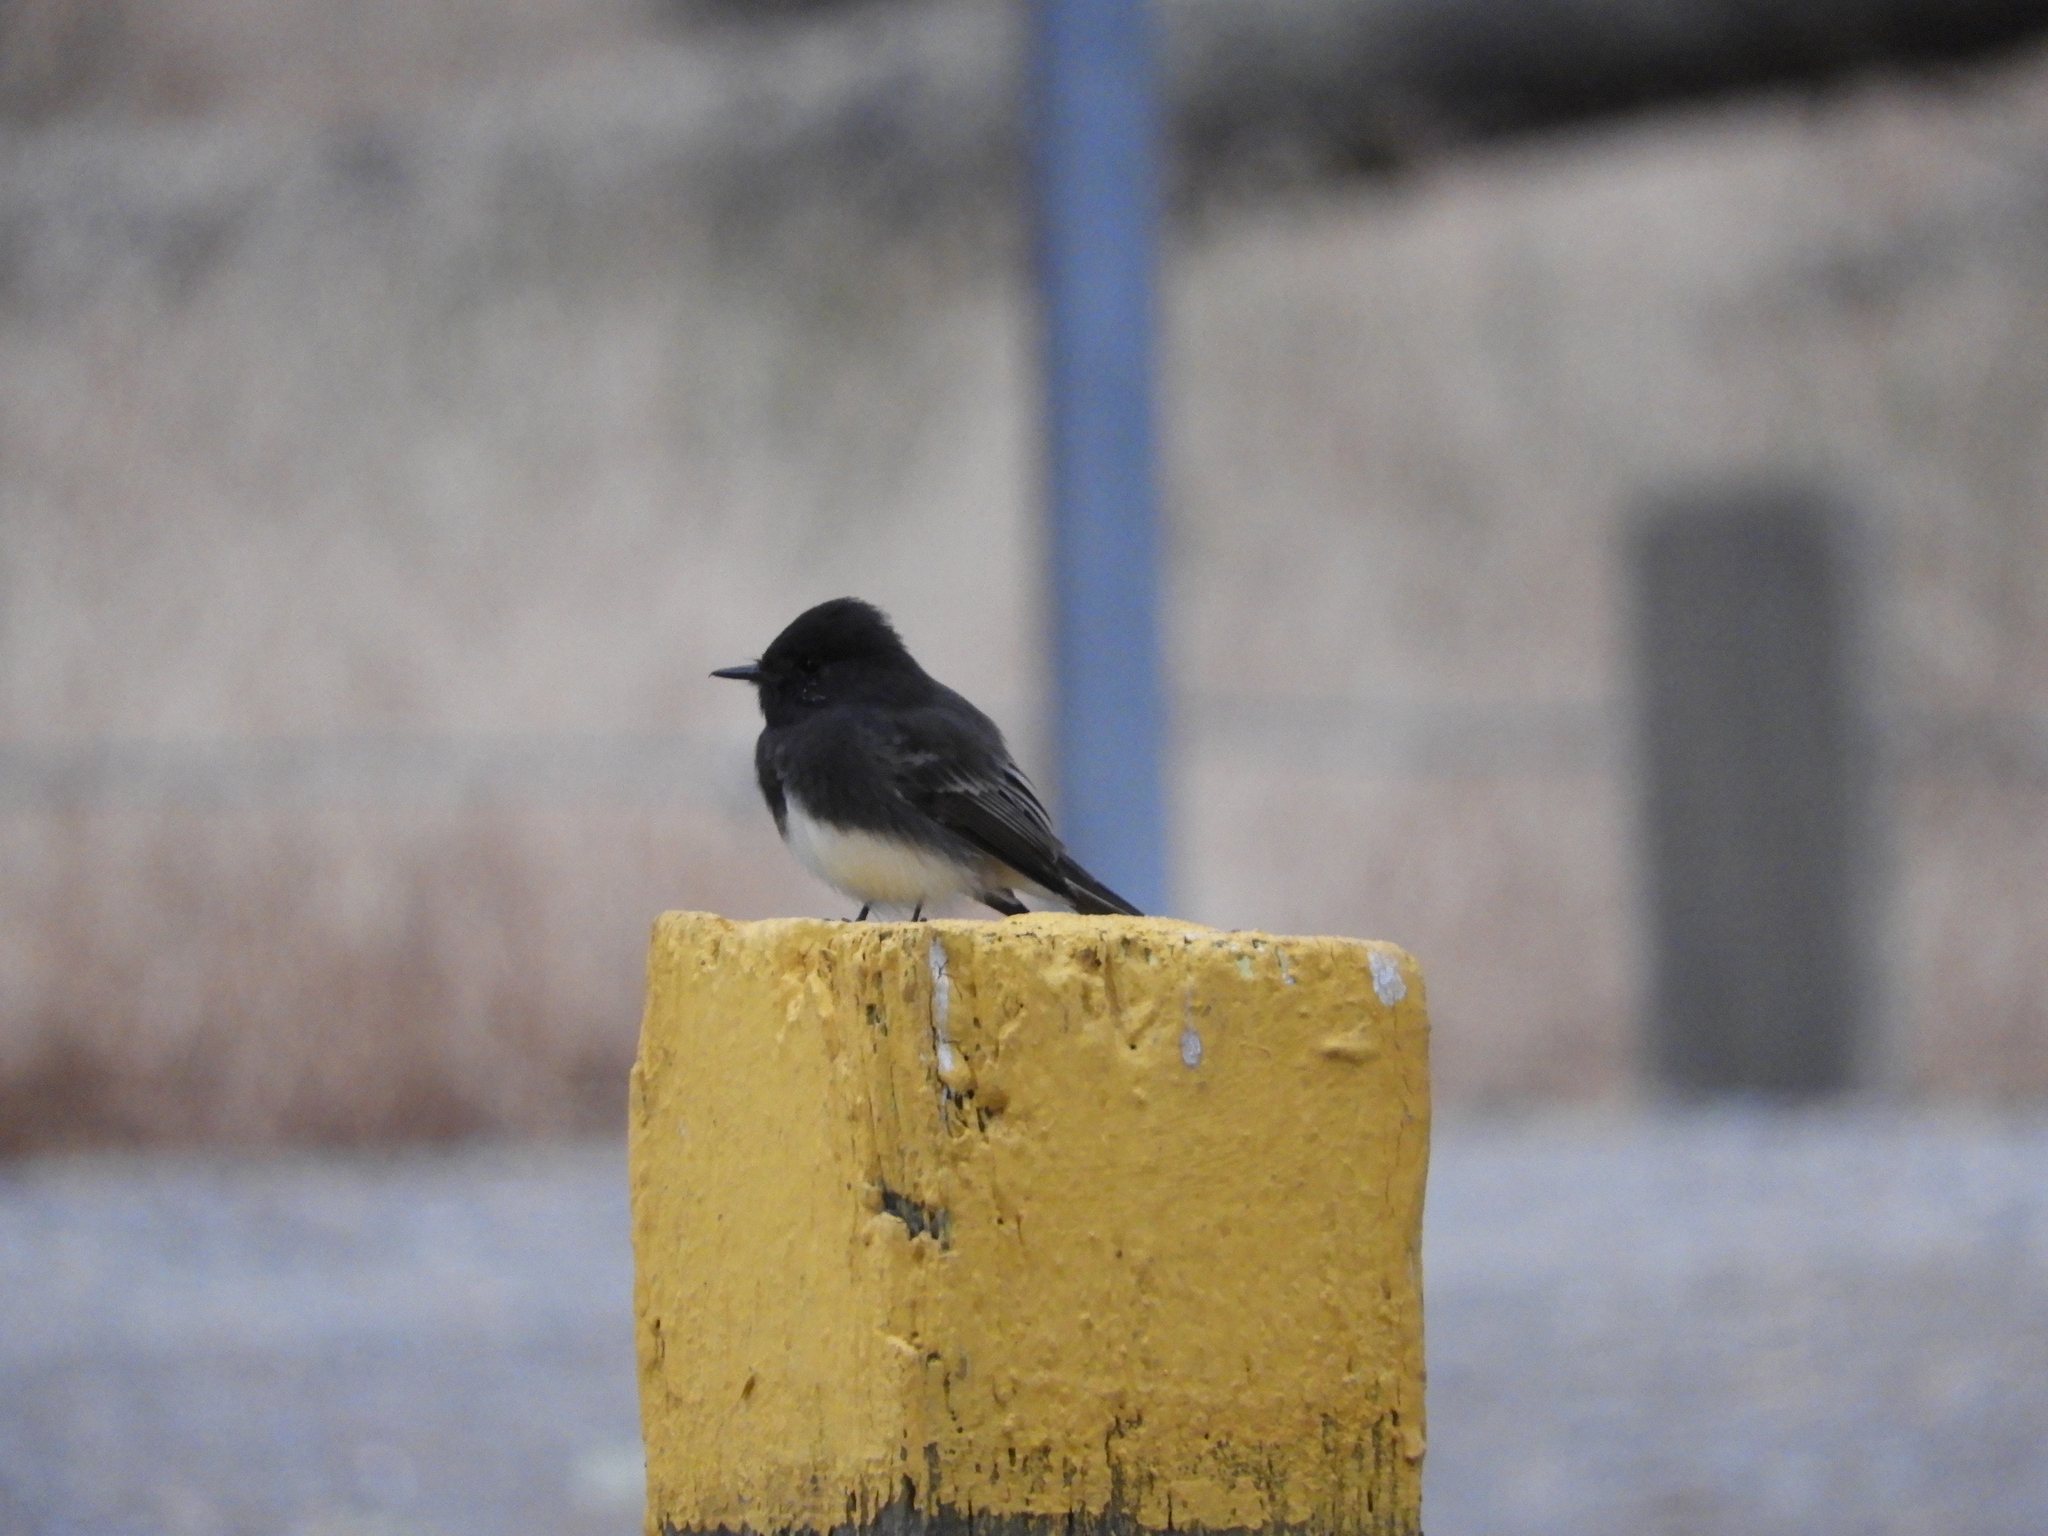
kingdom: Animalia
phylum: Chordata
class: Aves
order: Passeriformes
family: Tyrannidae
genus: Sayornis
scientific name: Sayornis nigricans
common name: Black phoebe
